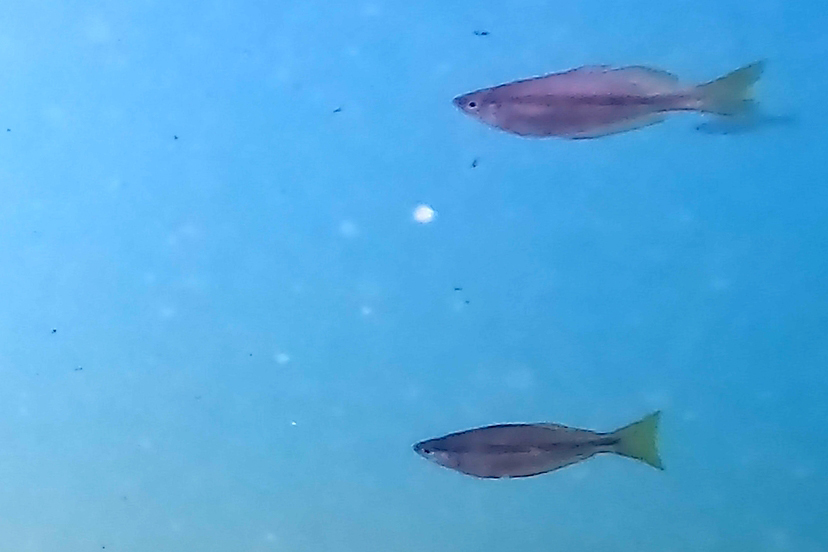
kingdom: Animalia
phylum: Chordata
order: Atheriniformes
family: Melanotaeniidae
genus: Melanotaenia
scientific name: Melanotaenia splendida
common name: Checkered rainbowfish
